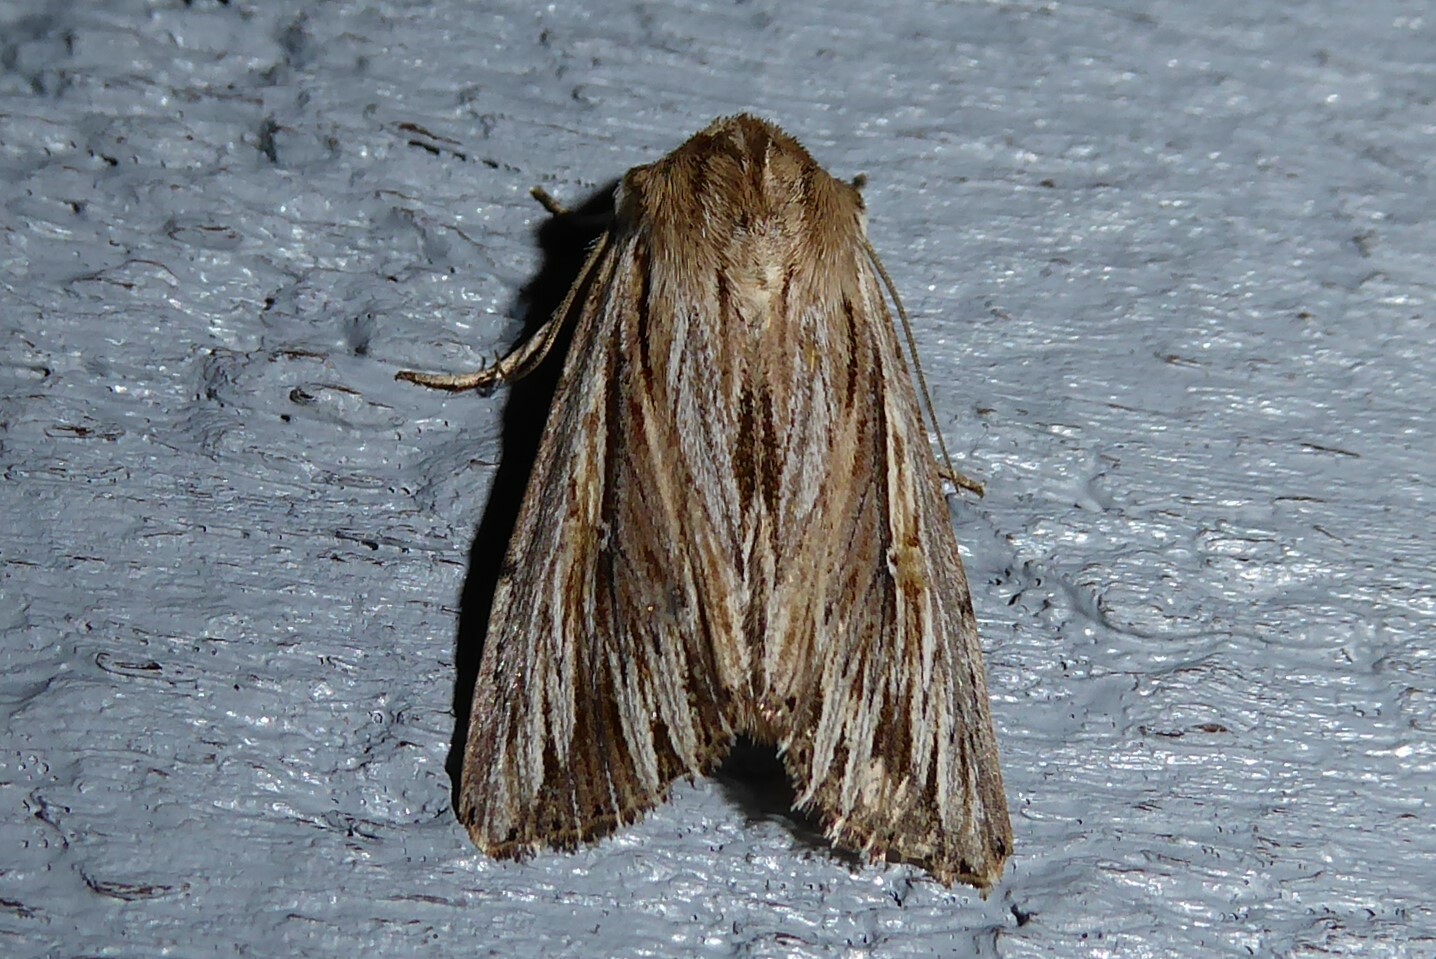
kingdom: Animalia
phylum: Arthropoda
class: Insecta
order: Lepidoptera
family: Noctuidae
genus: Persectania
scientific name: Persectania aversa
